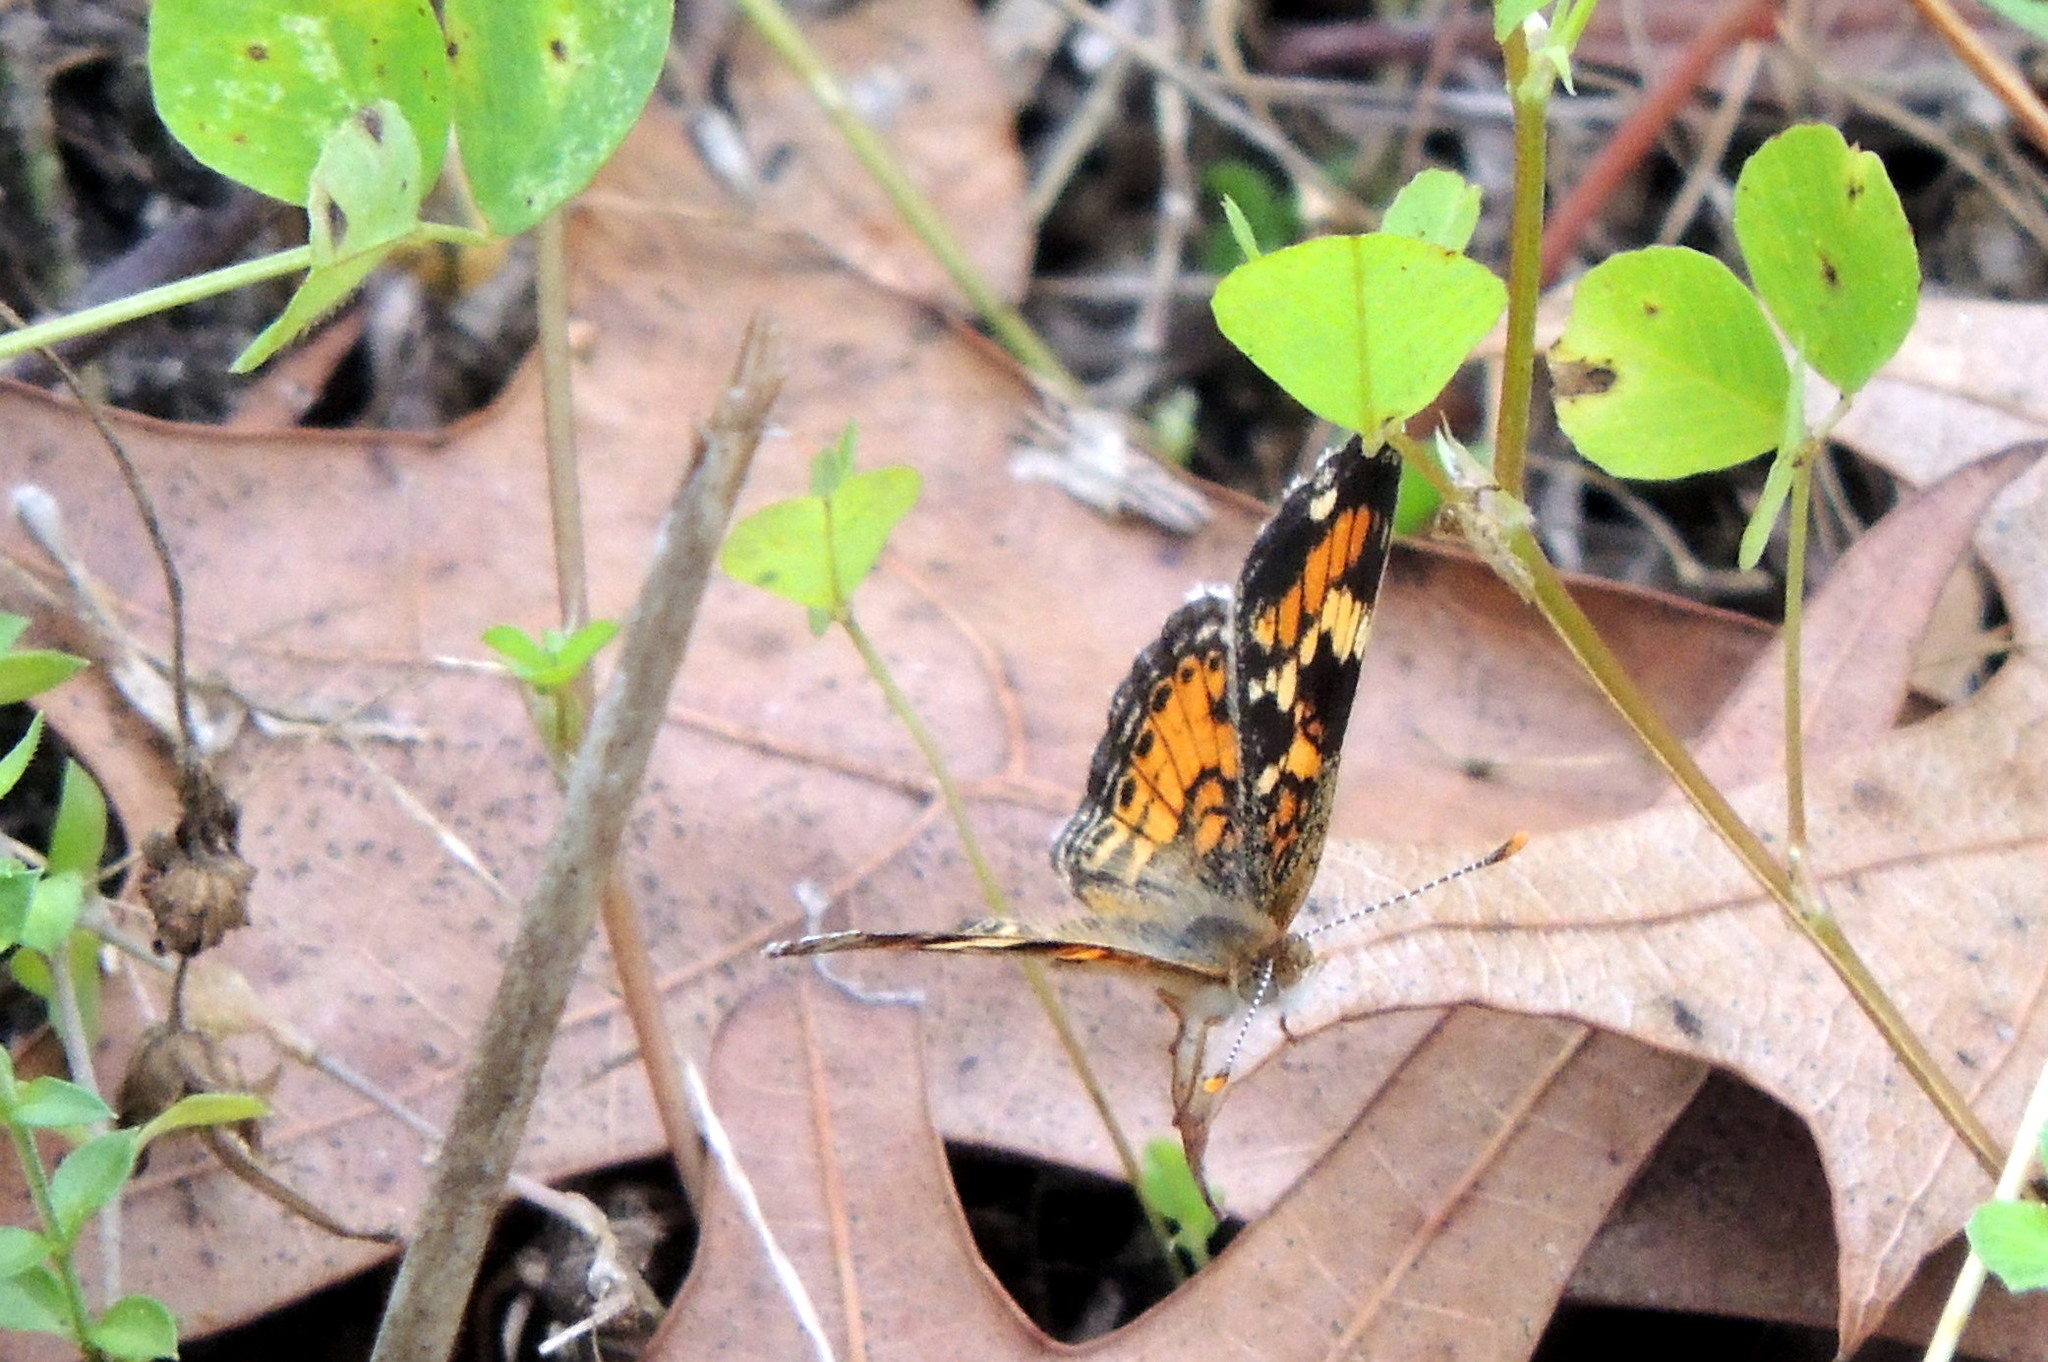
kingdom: Animalia
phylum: Arthropoda
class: Insecta
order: Lepidoptera
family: Nymphalidae
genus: Phyciodes
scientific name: Phyciodes phaon
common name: Phaon crescent
